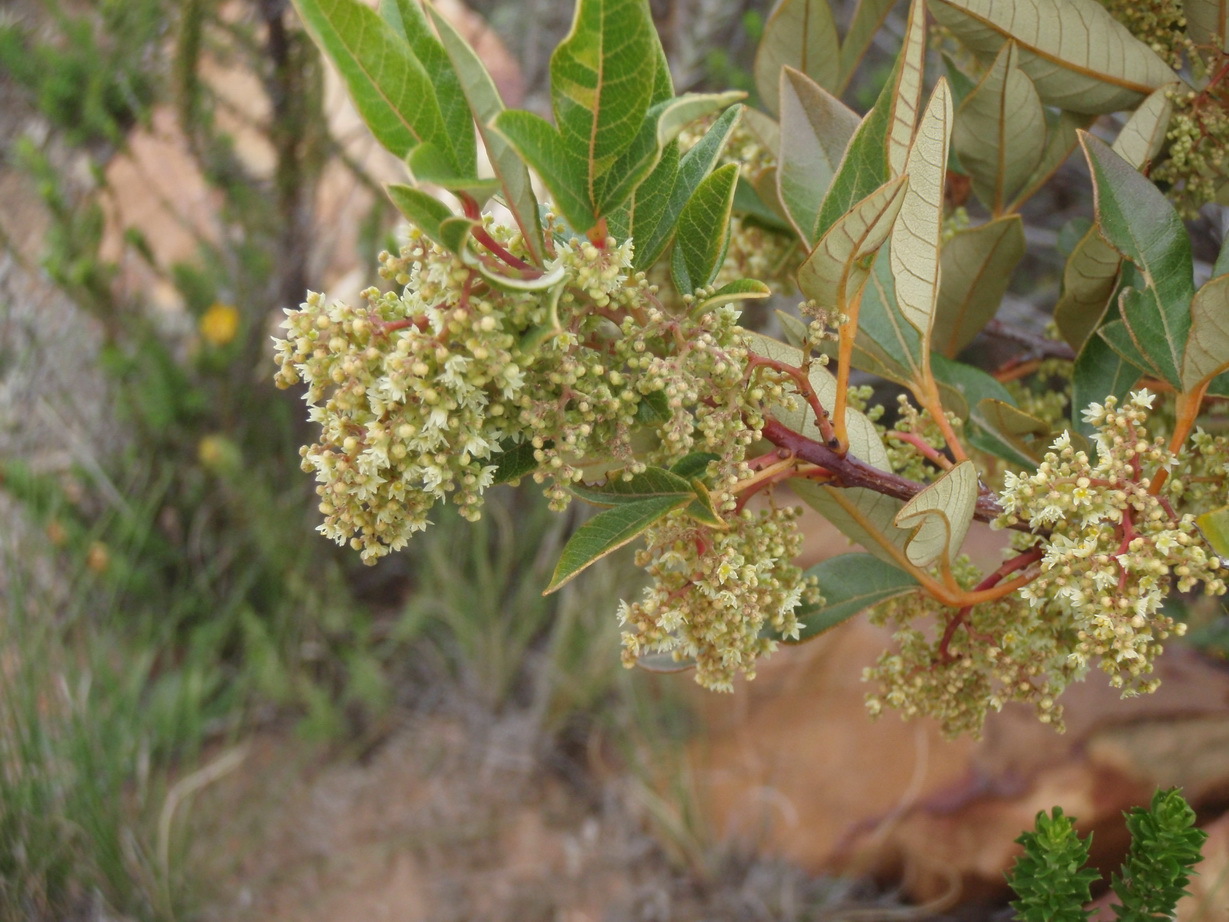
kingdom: Plantae
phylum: Tracheophyta
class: Magnoliopsida
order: Sapindales
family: Anacardiaceae
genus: Searsia
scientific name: Searsia tomentosa
